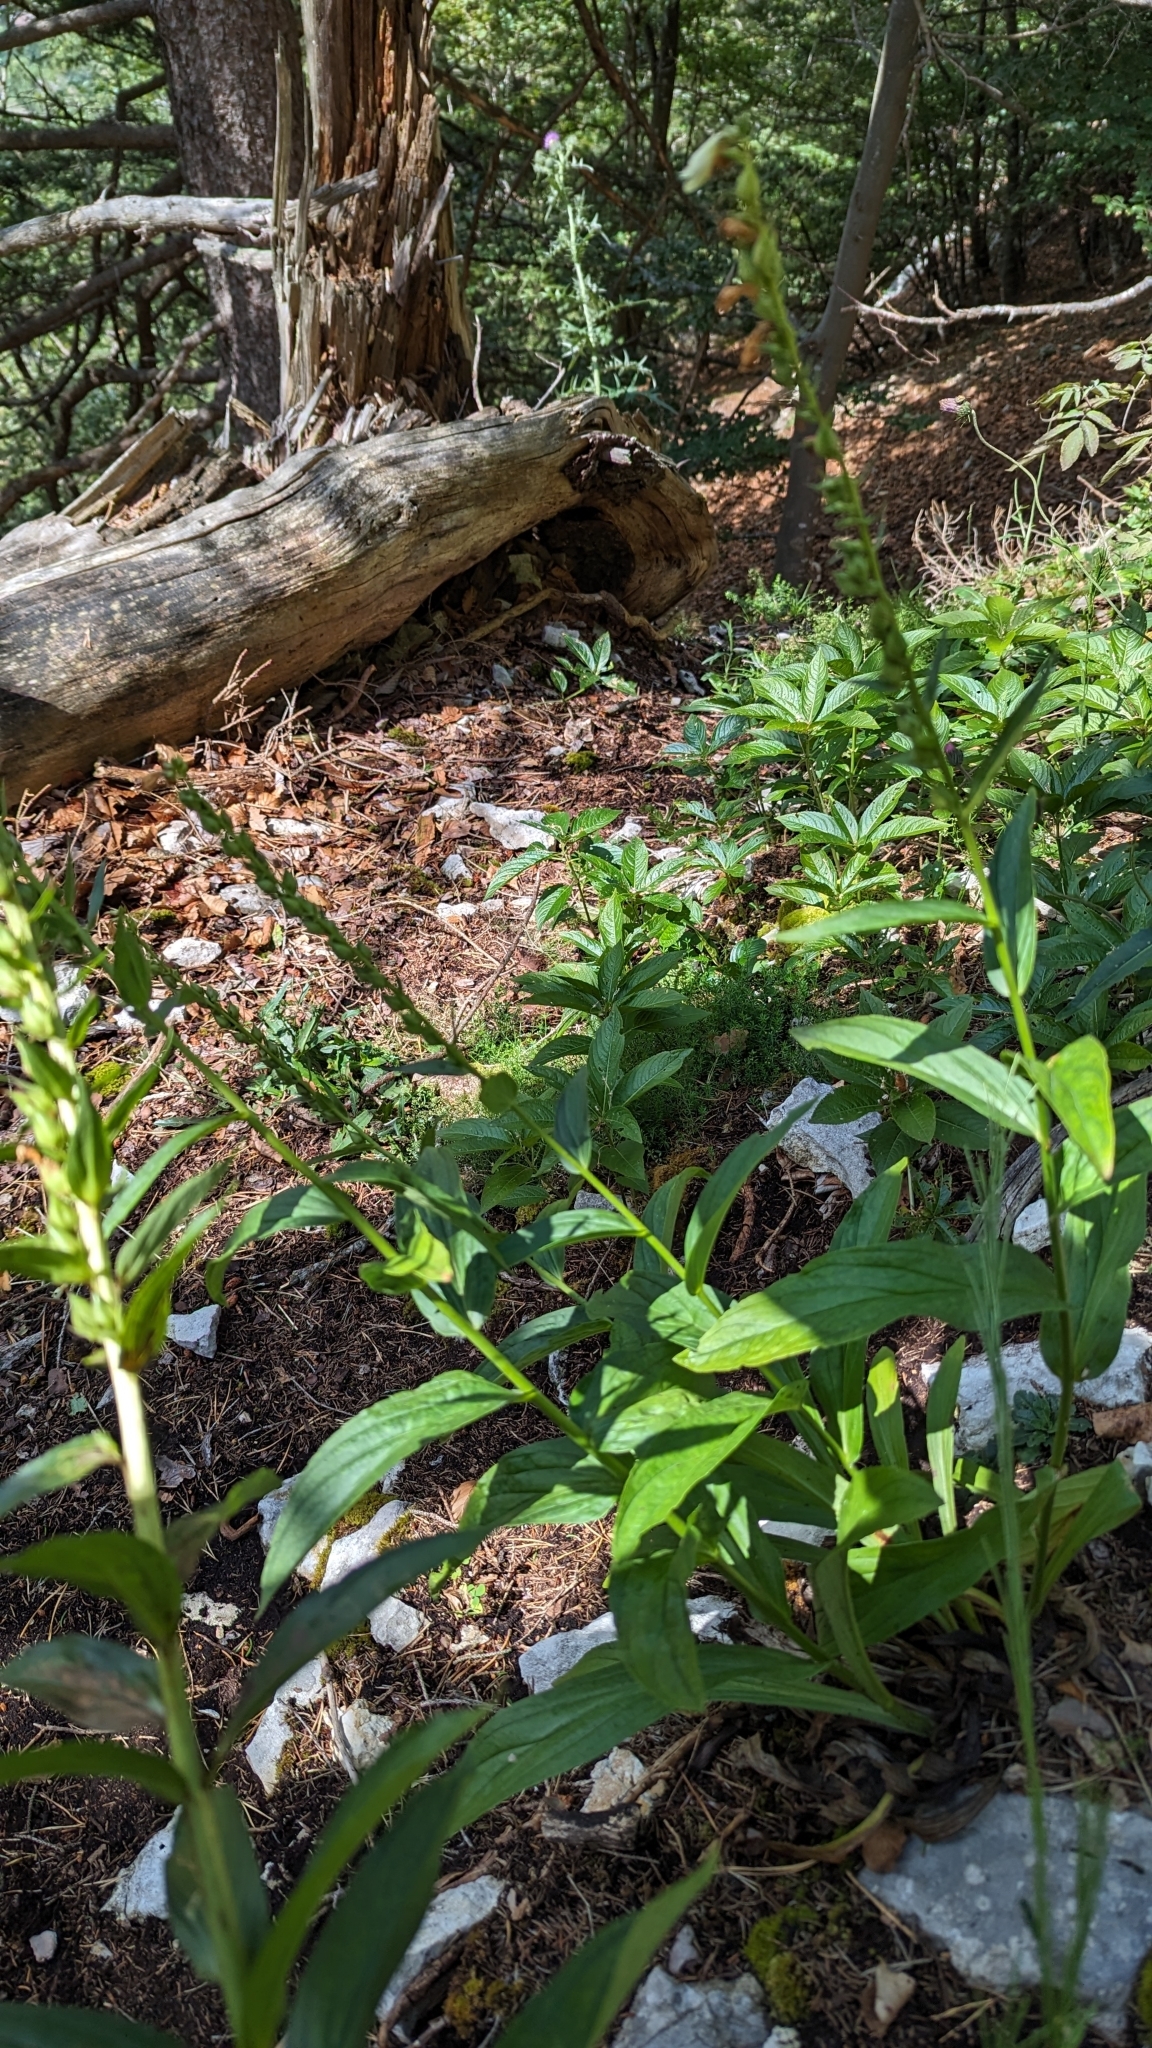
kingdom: Plantae
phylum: Tracheophyta
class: Magnoliopsida
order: Lamiales
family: Plantaginaceae
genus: Digitalis
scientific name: Digitalis lutea
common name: Straw foxglove
